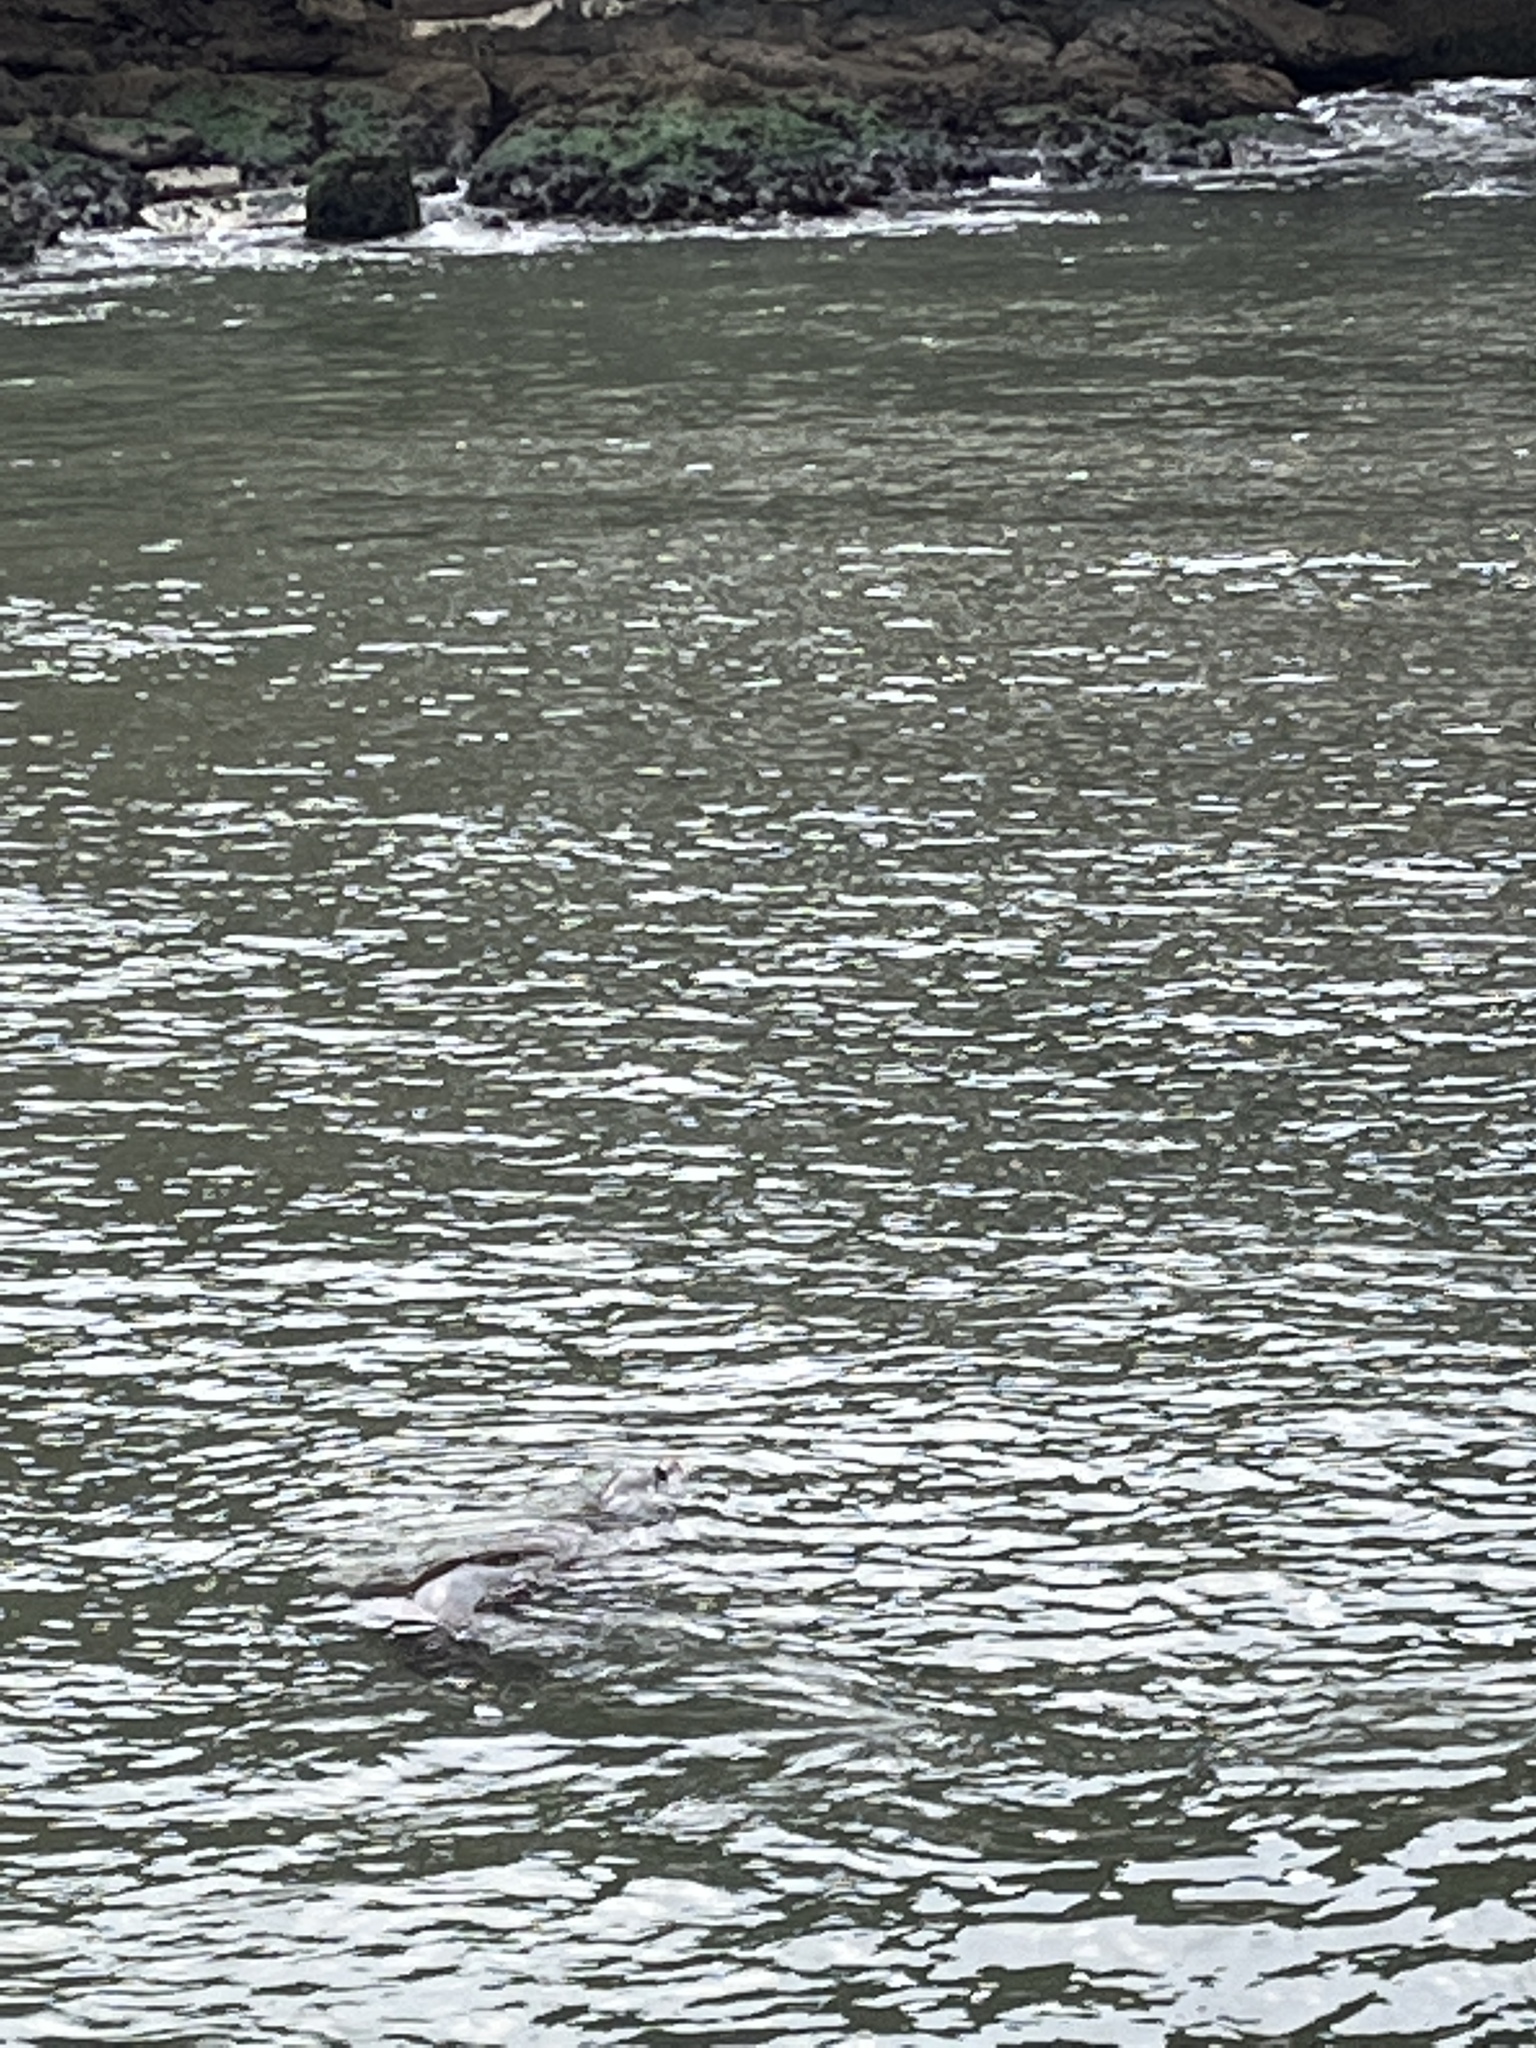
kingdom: Animalia
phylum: Chordata
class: Mammalia
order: Carnivora
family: Otariidae
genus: Zalophus
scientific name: Zalophus californianus
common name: California sea lion
